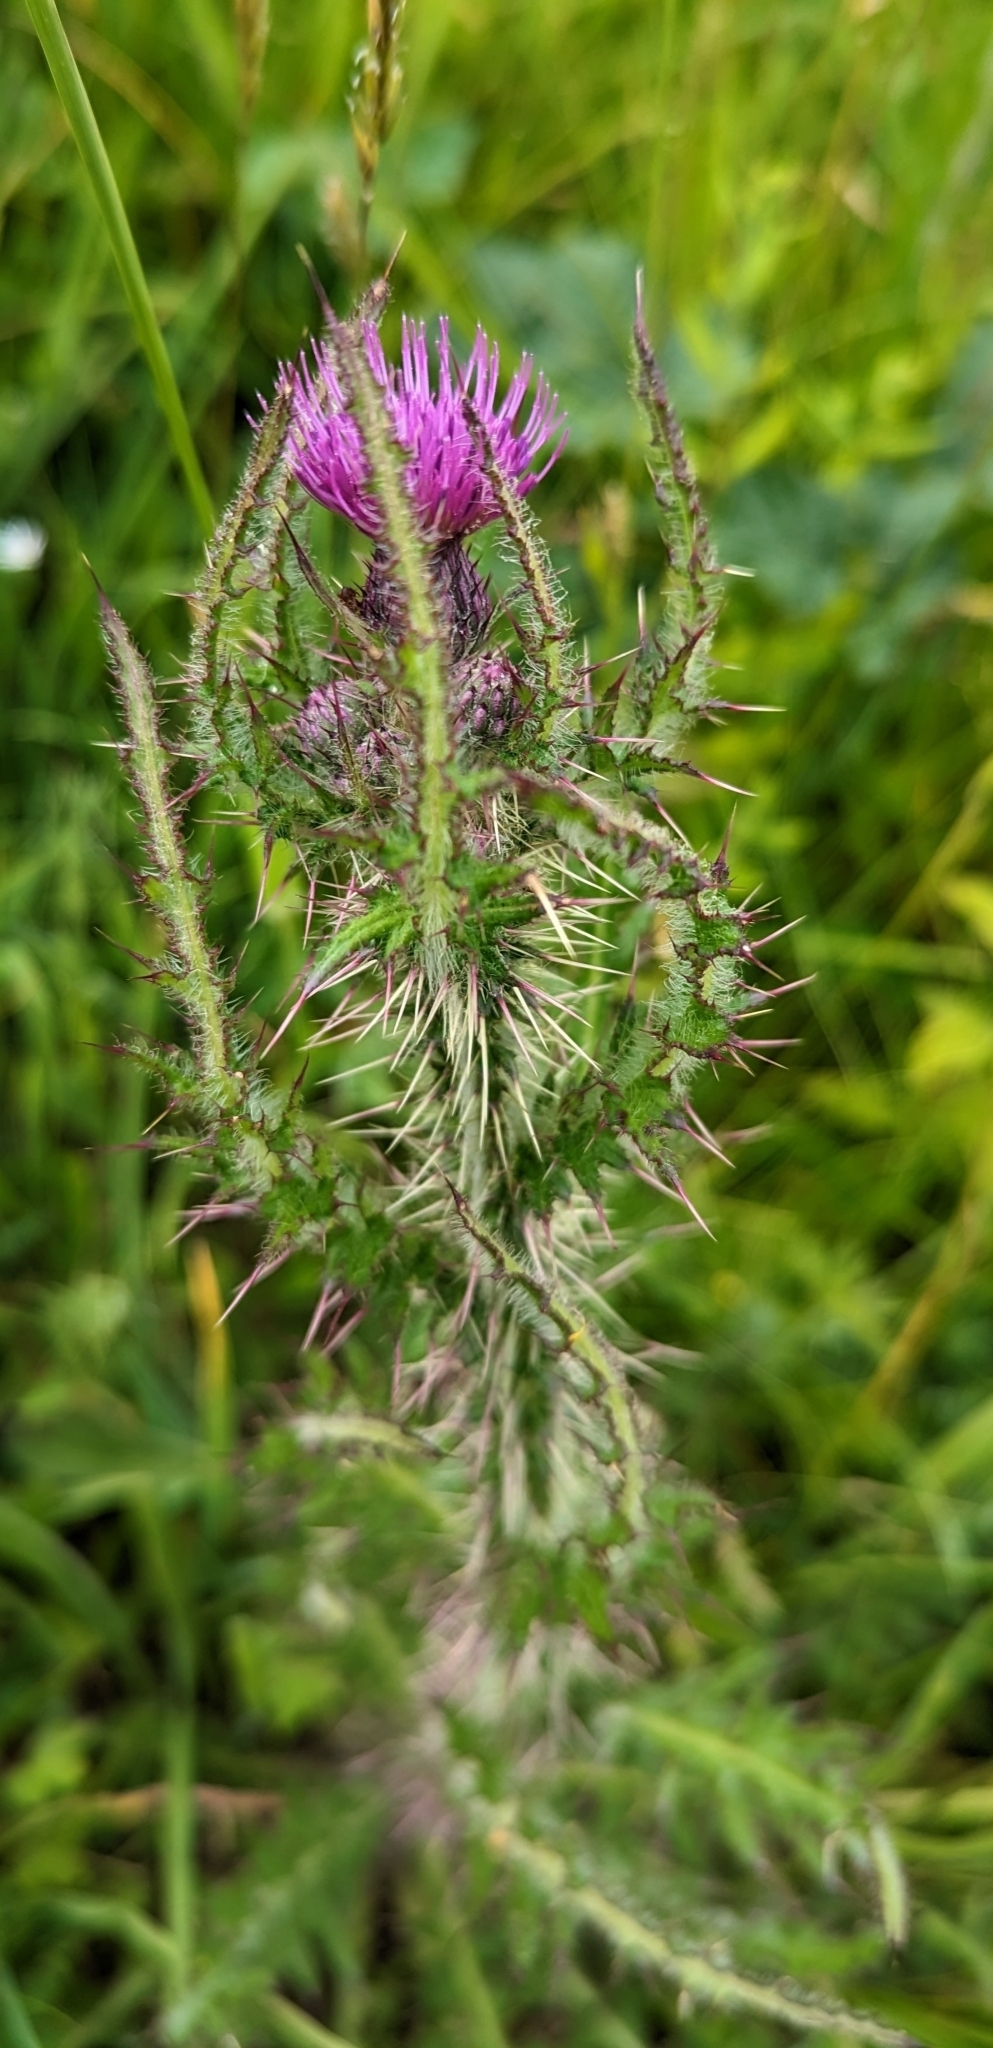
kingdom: Plantae
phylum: Tracheophyta
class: Magnoliopsida
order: Asterales
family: Asteraceae
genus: Cirsium
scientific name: Cirsium palustre
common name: Marsh thistle
